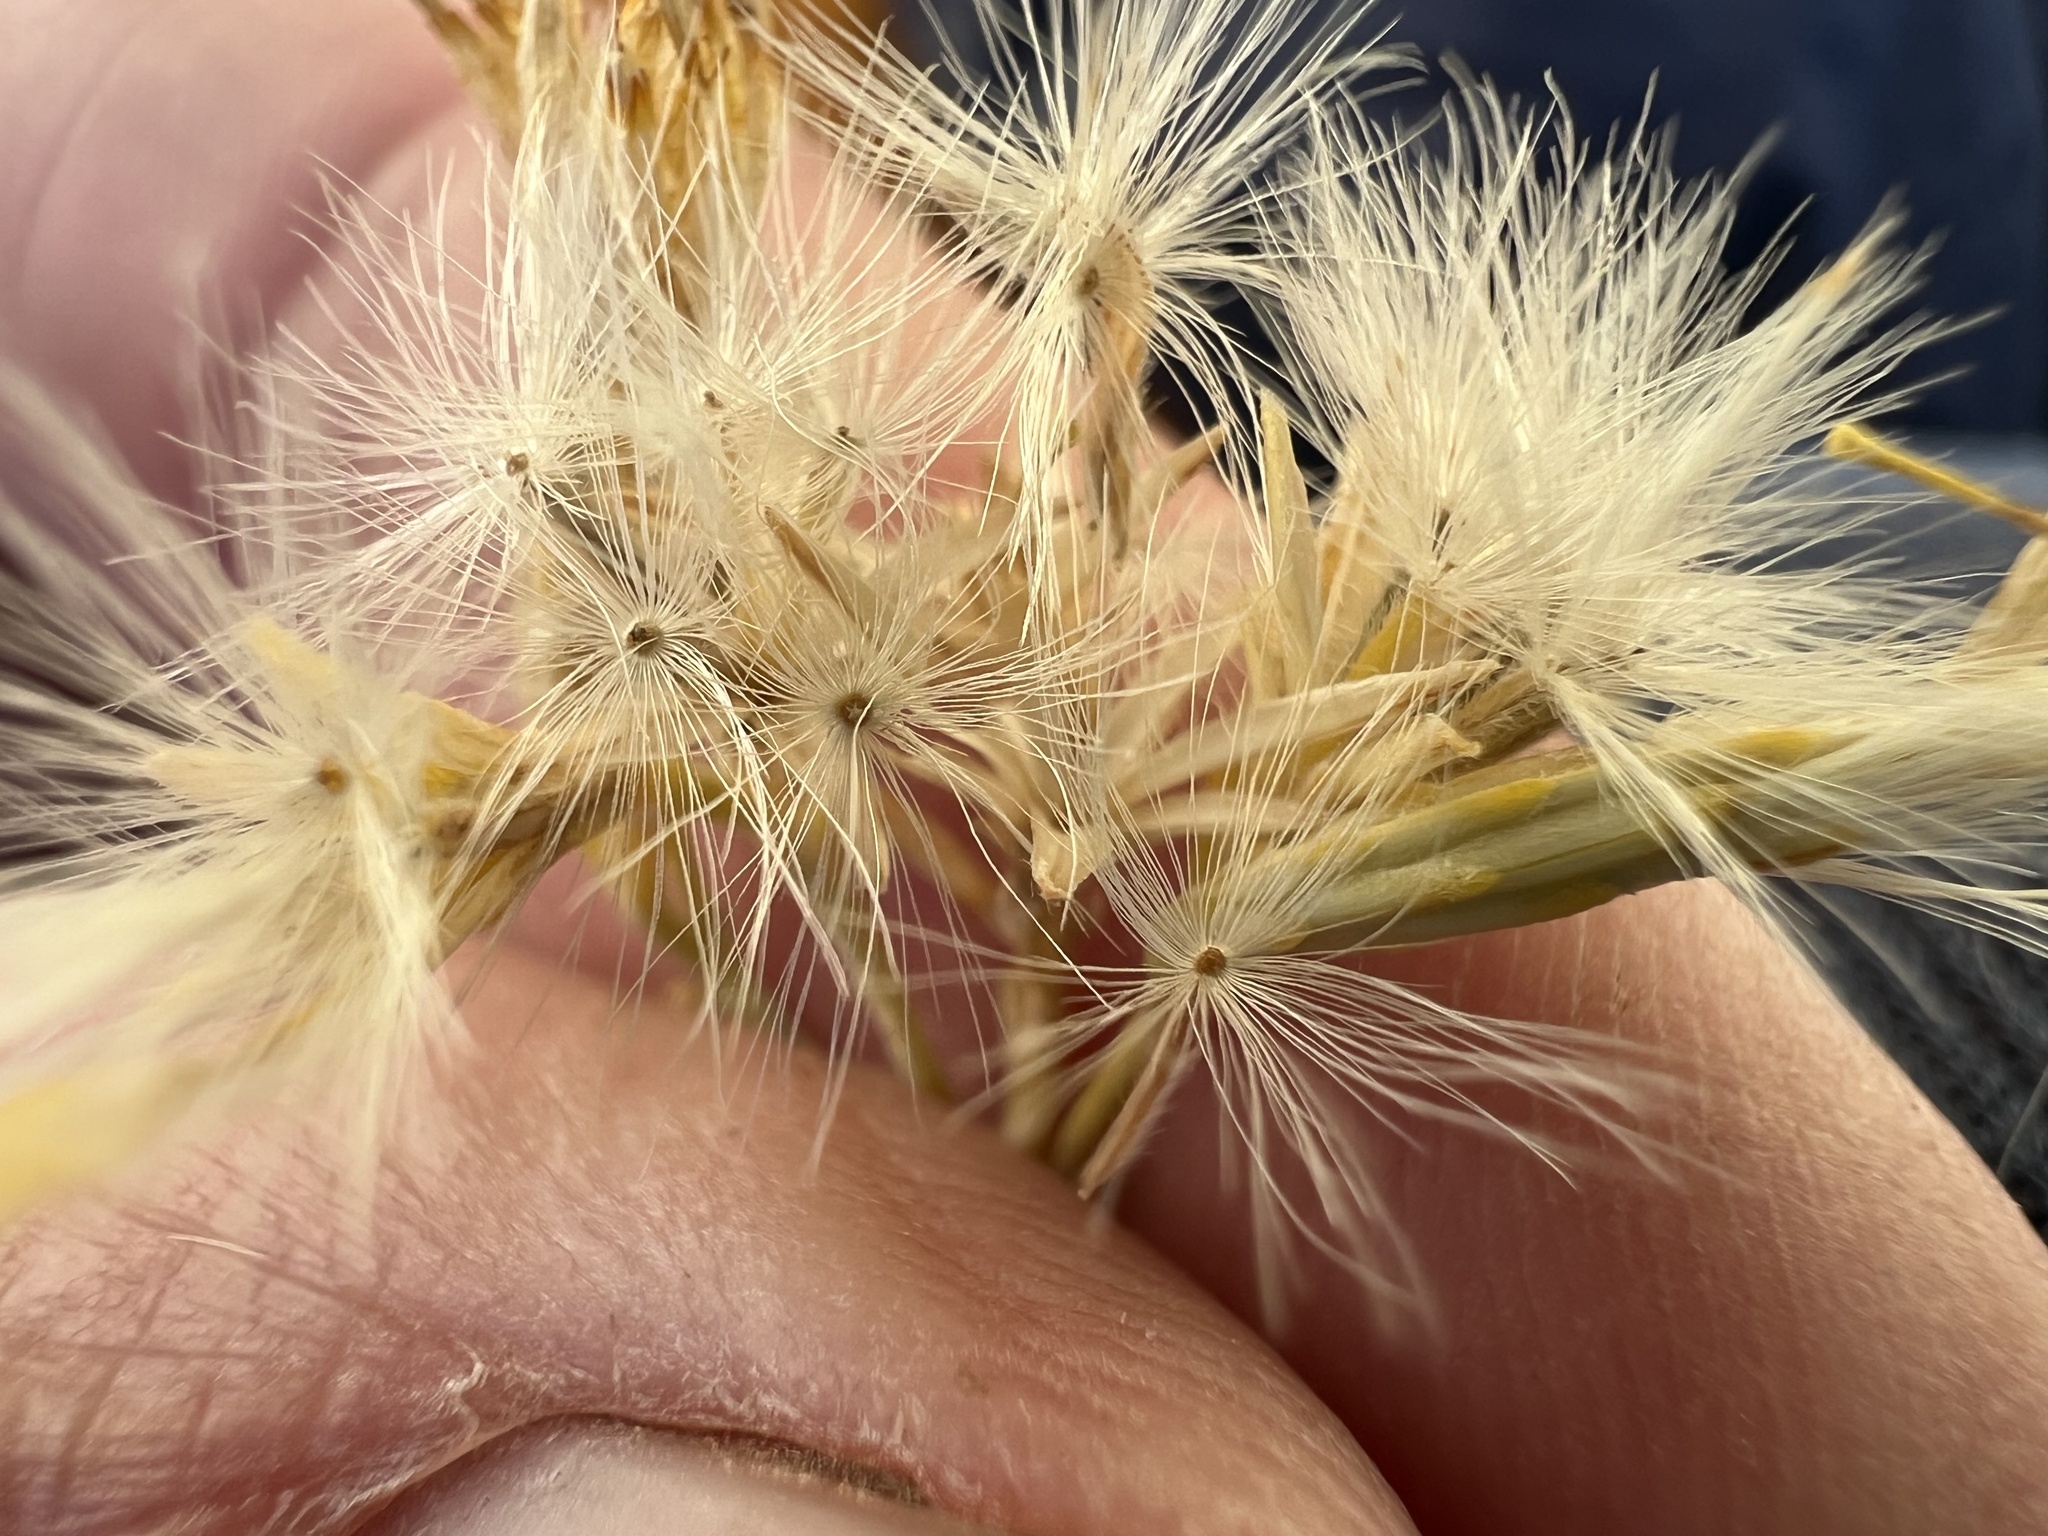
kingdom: Plantae
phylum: Tracheophyta
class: Magnoliopsida
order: Asterales
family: Asteraceae
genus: Ericameria
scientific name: Ericameria nauseosa
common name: Rubber rabbitbrush
